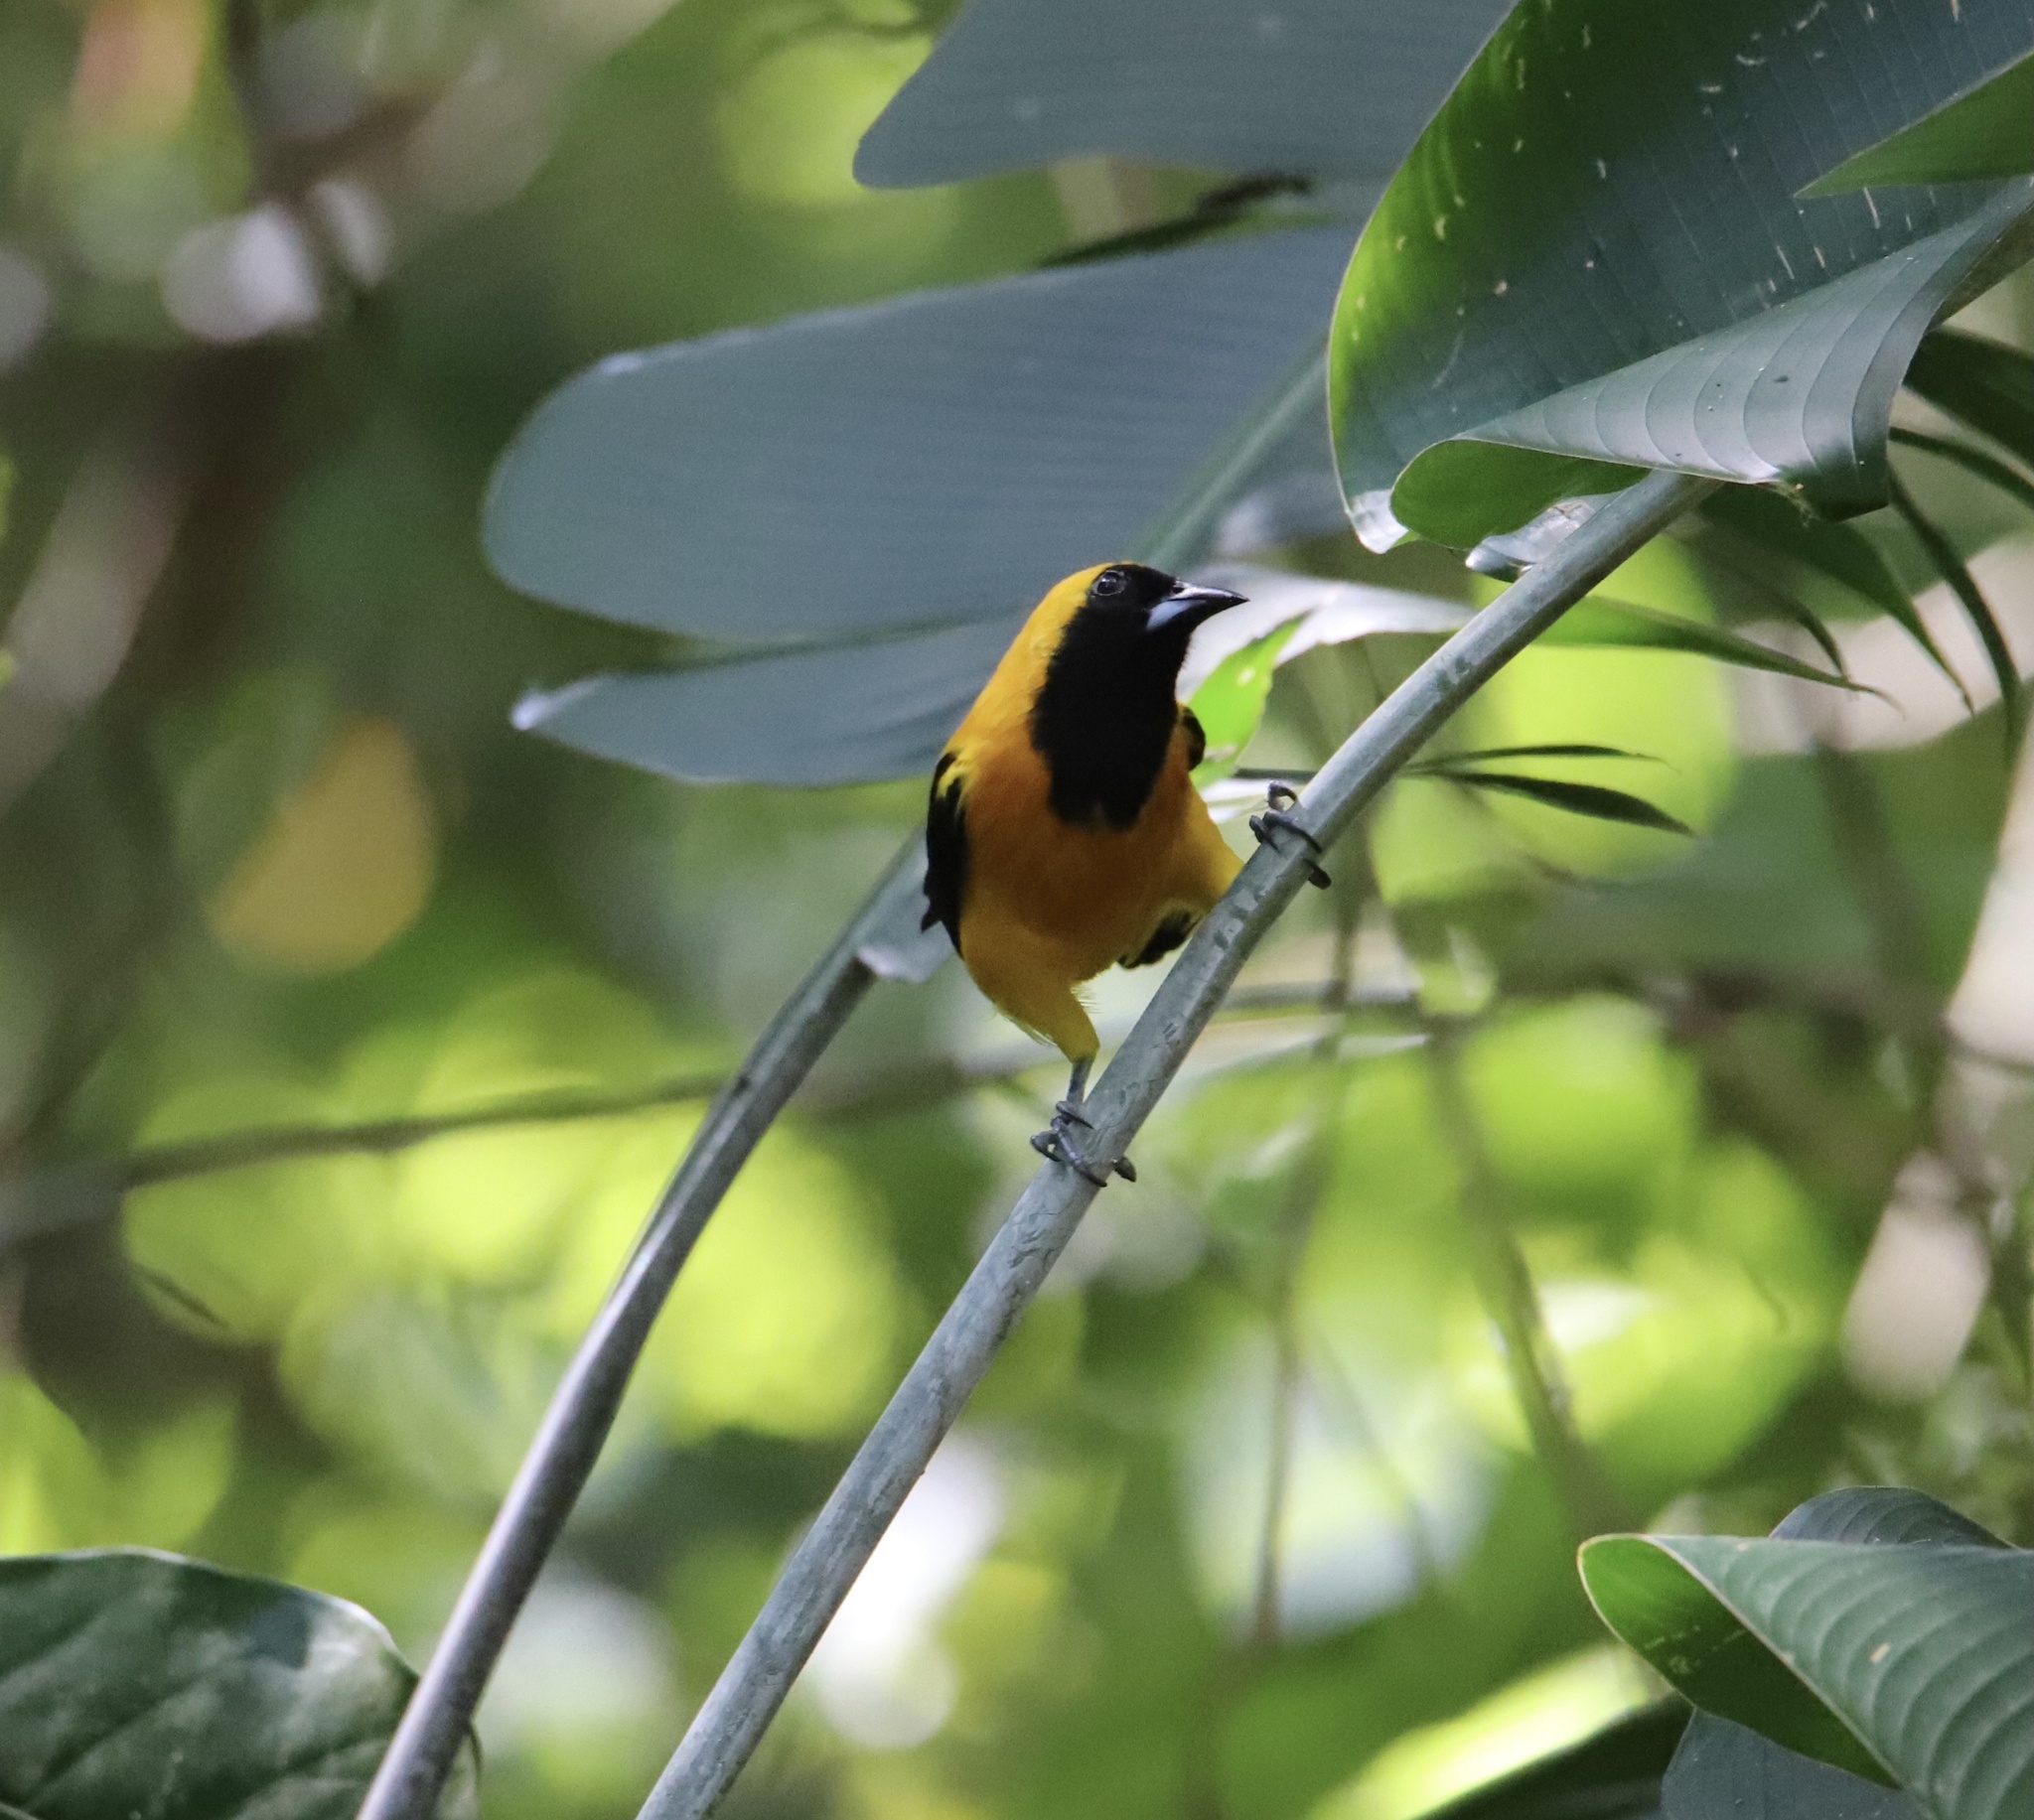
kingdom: Animalia
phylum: Chordata
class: Aves
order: Passeriformes
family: Icteridae
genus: Icterus
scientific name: Icterus chrysater
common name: Yellow-backed oriole
